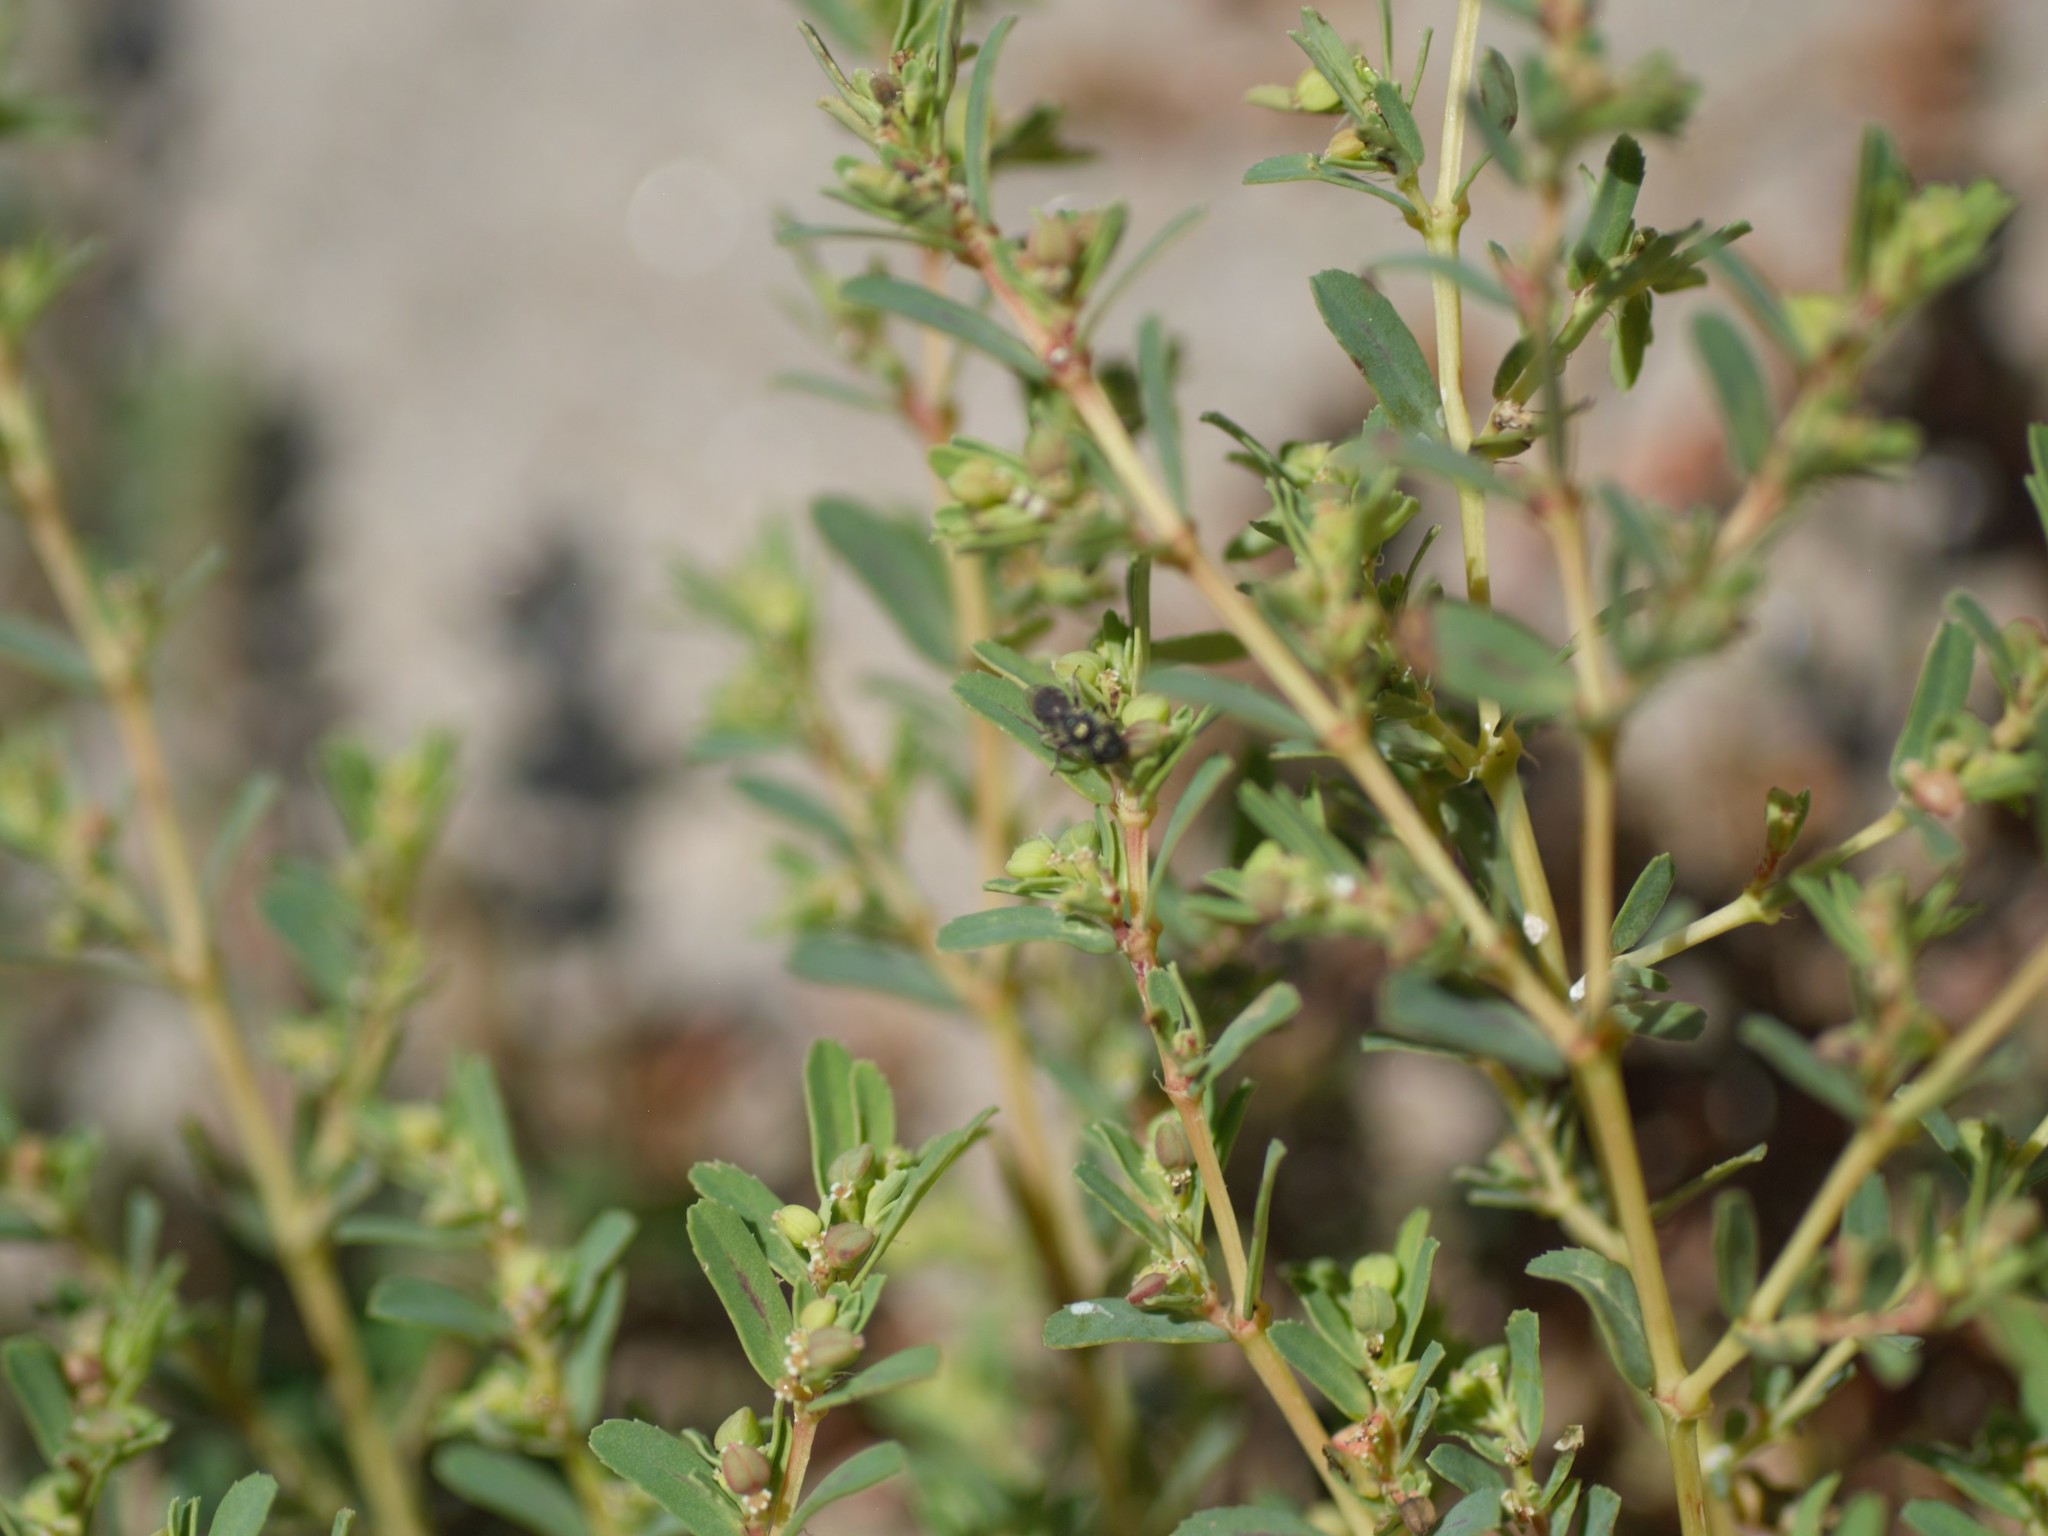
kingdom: Animalia
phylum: Arthropoda
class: Insecta
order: Hymenoptera
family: Halictidae
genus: Dialictus
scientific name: Dialictus
